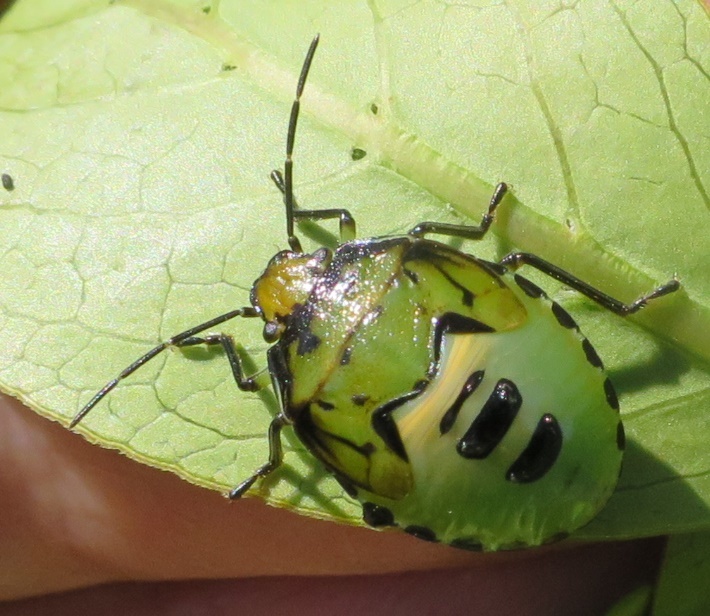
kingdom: Animalia
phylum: Arthropoda
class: Insecta
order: Hemiptera
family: Pentatomidae
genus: Glaucias
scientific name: Glaucias amyota
